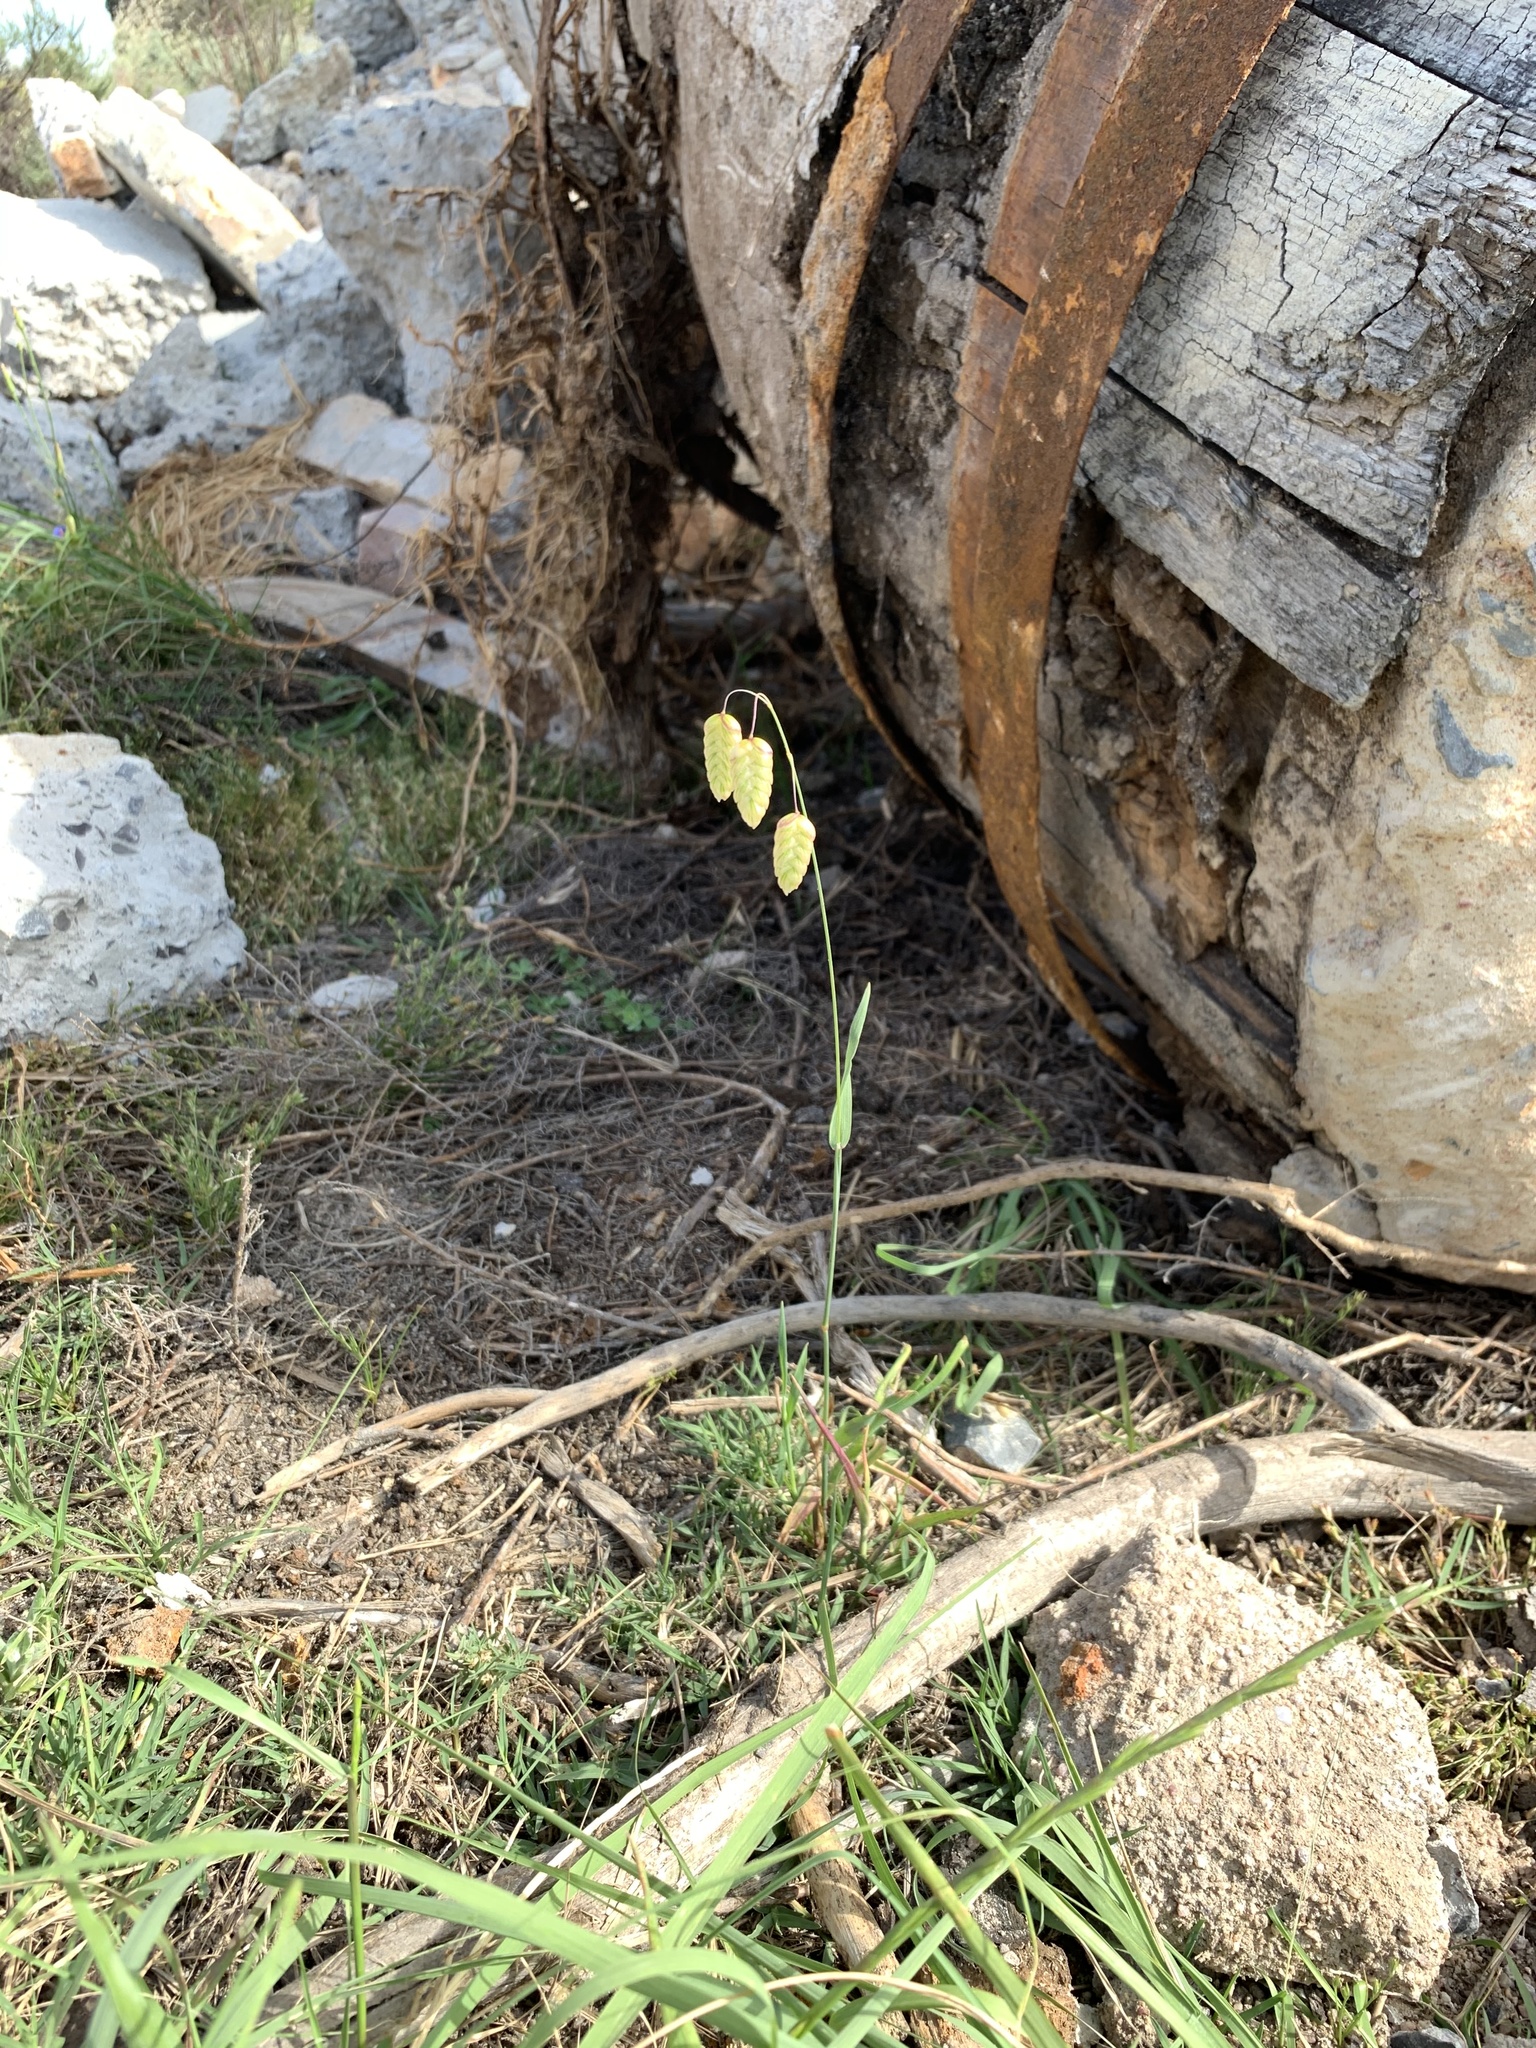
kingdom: Plantae
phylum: Tracheophyta
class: Liliopsida
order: Poales
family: Poaceae
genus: Briza
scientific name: Briza maxima
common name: Big quakinggrass
